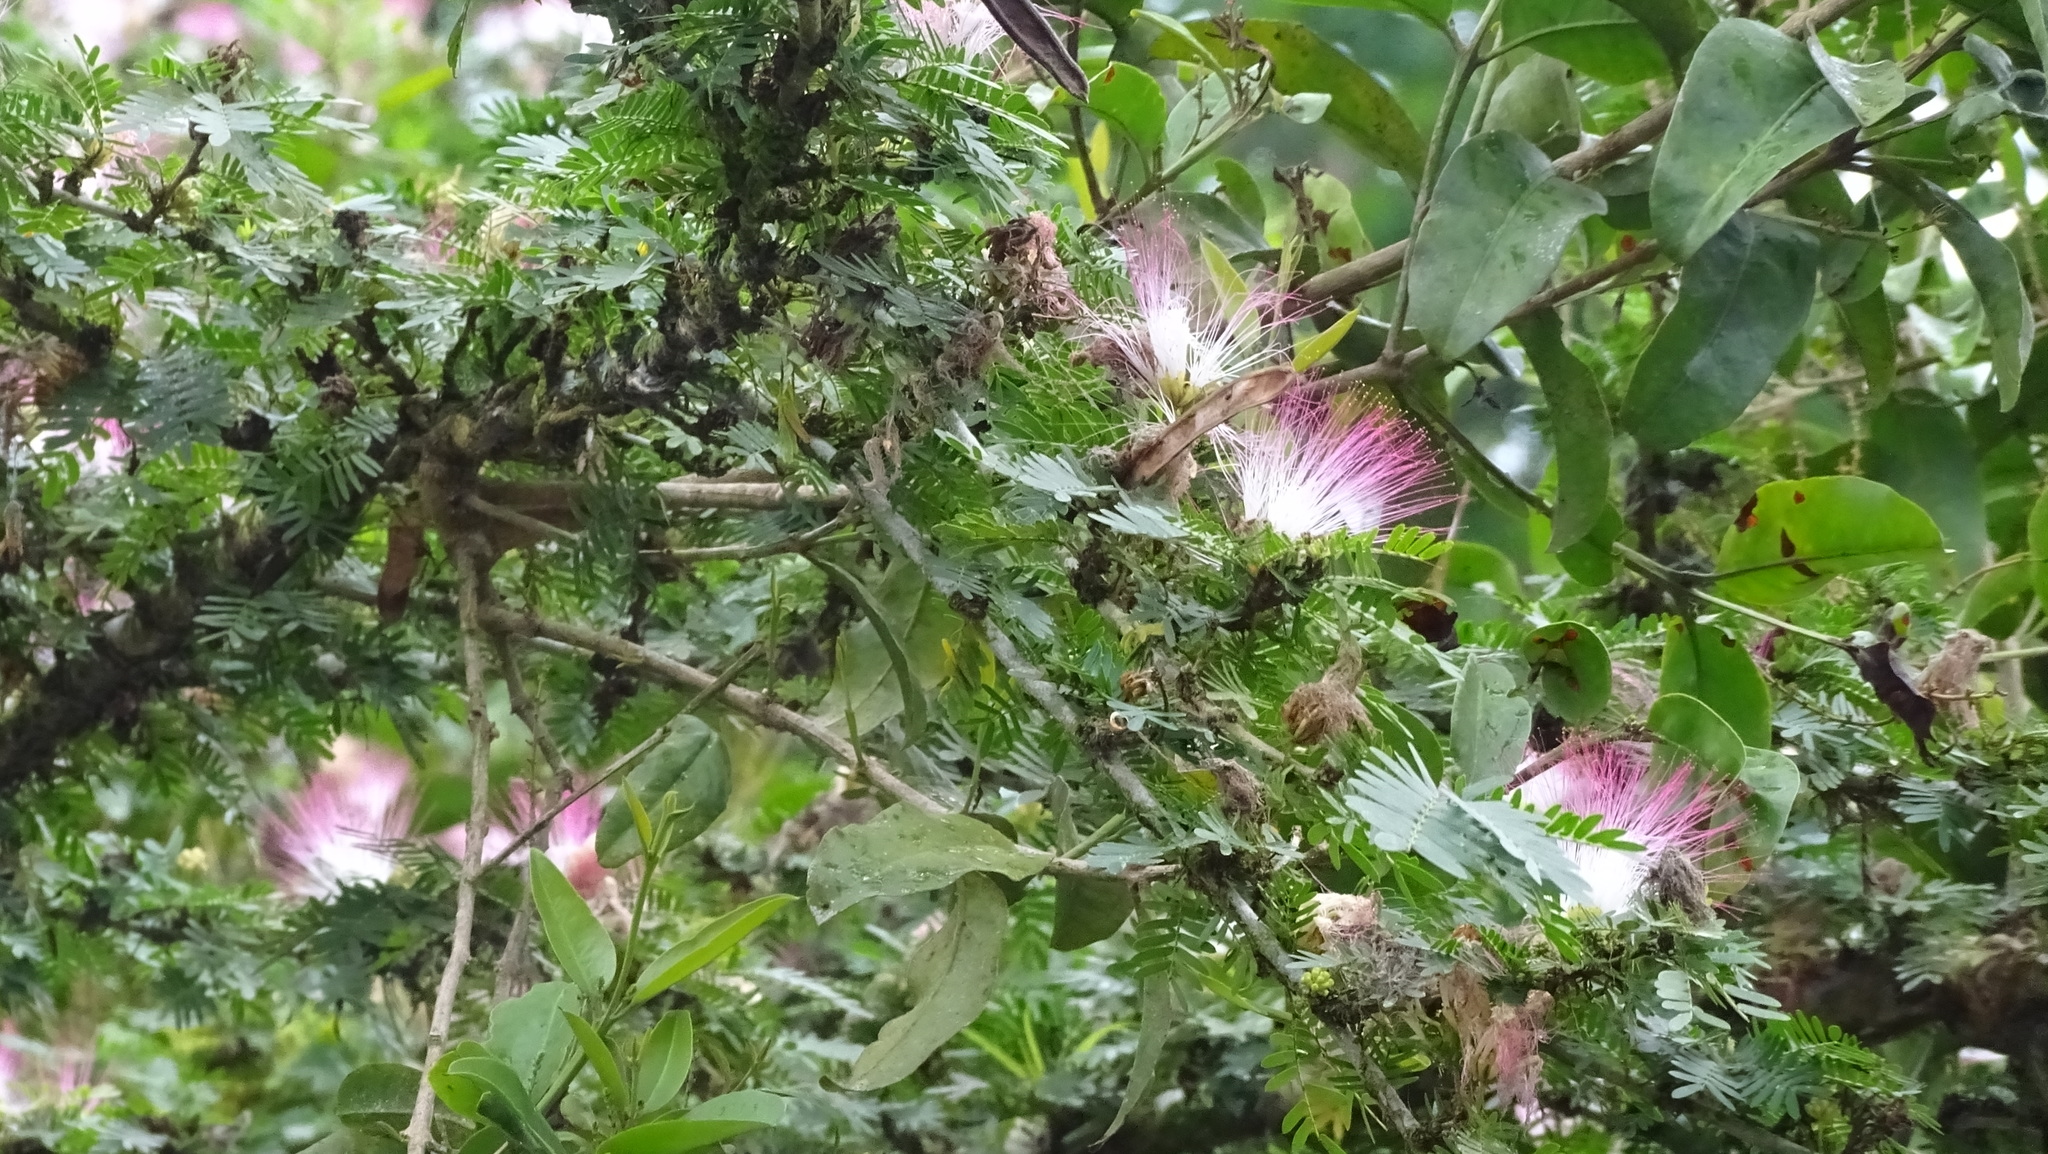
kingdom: Plantae
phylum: Tracheophyta
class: Magnoliopsida
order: Fabales
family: Fabaceae
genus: Calliandra
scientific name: Calliandra surinamensis
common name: Pink powder puff
